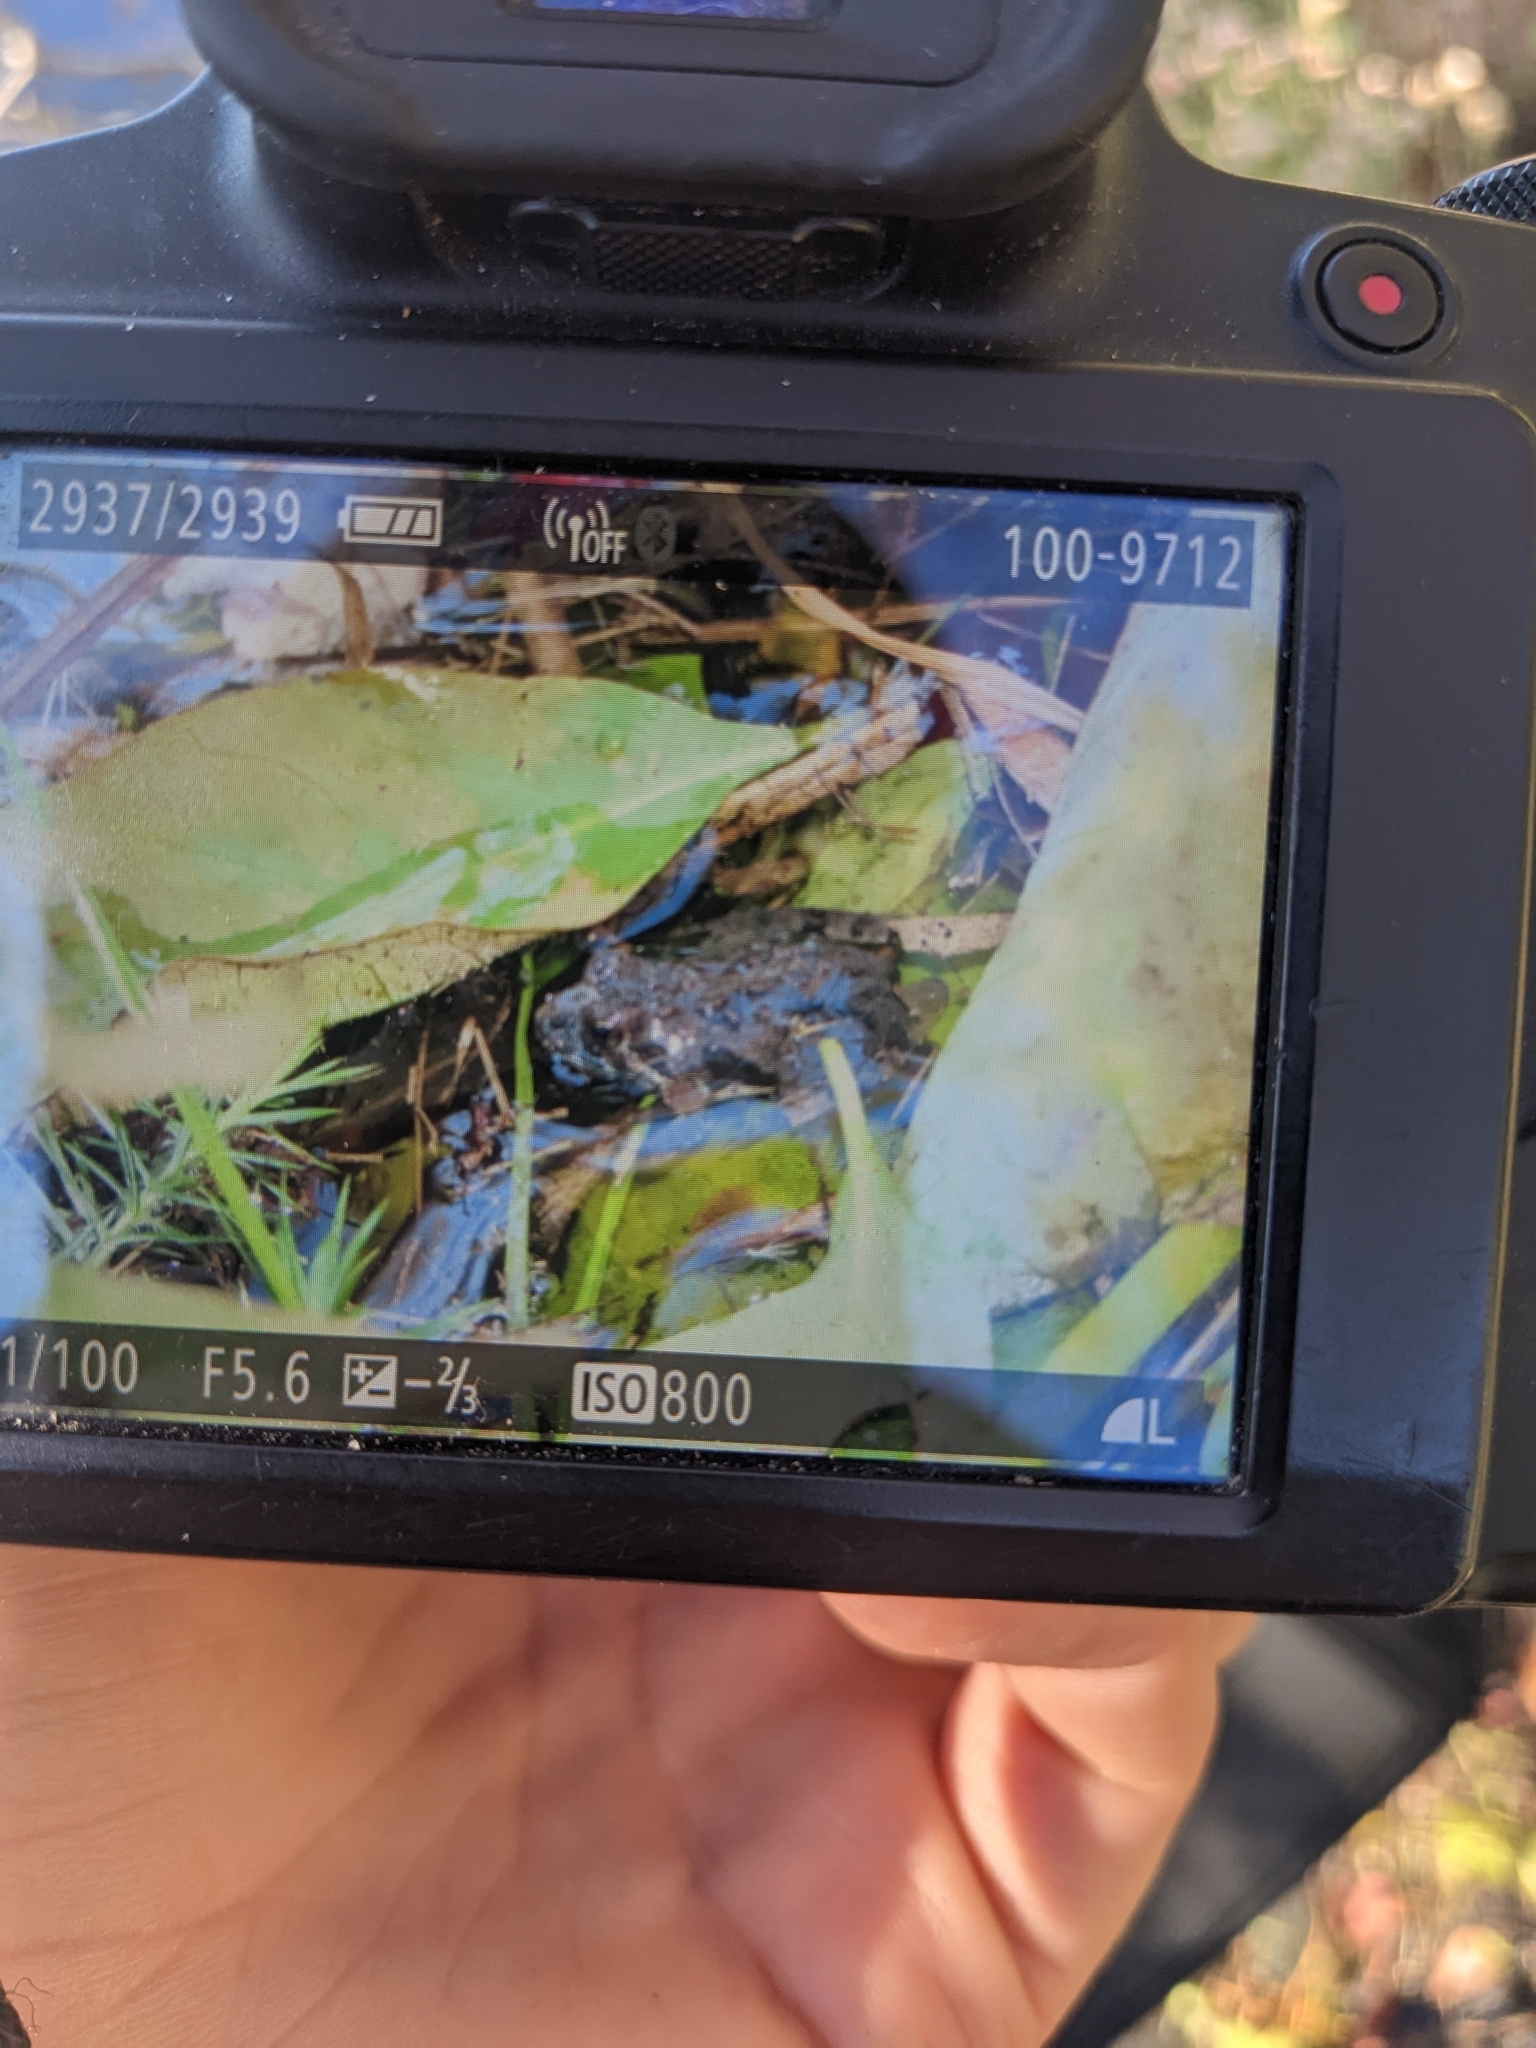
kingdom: Animalia
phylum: Chordata
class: Amphibia
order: Anura
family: Hylidae
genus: Acris
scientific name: Acris crepitans
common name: Northern cricket frog
